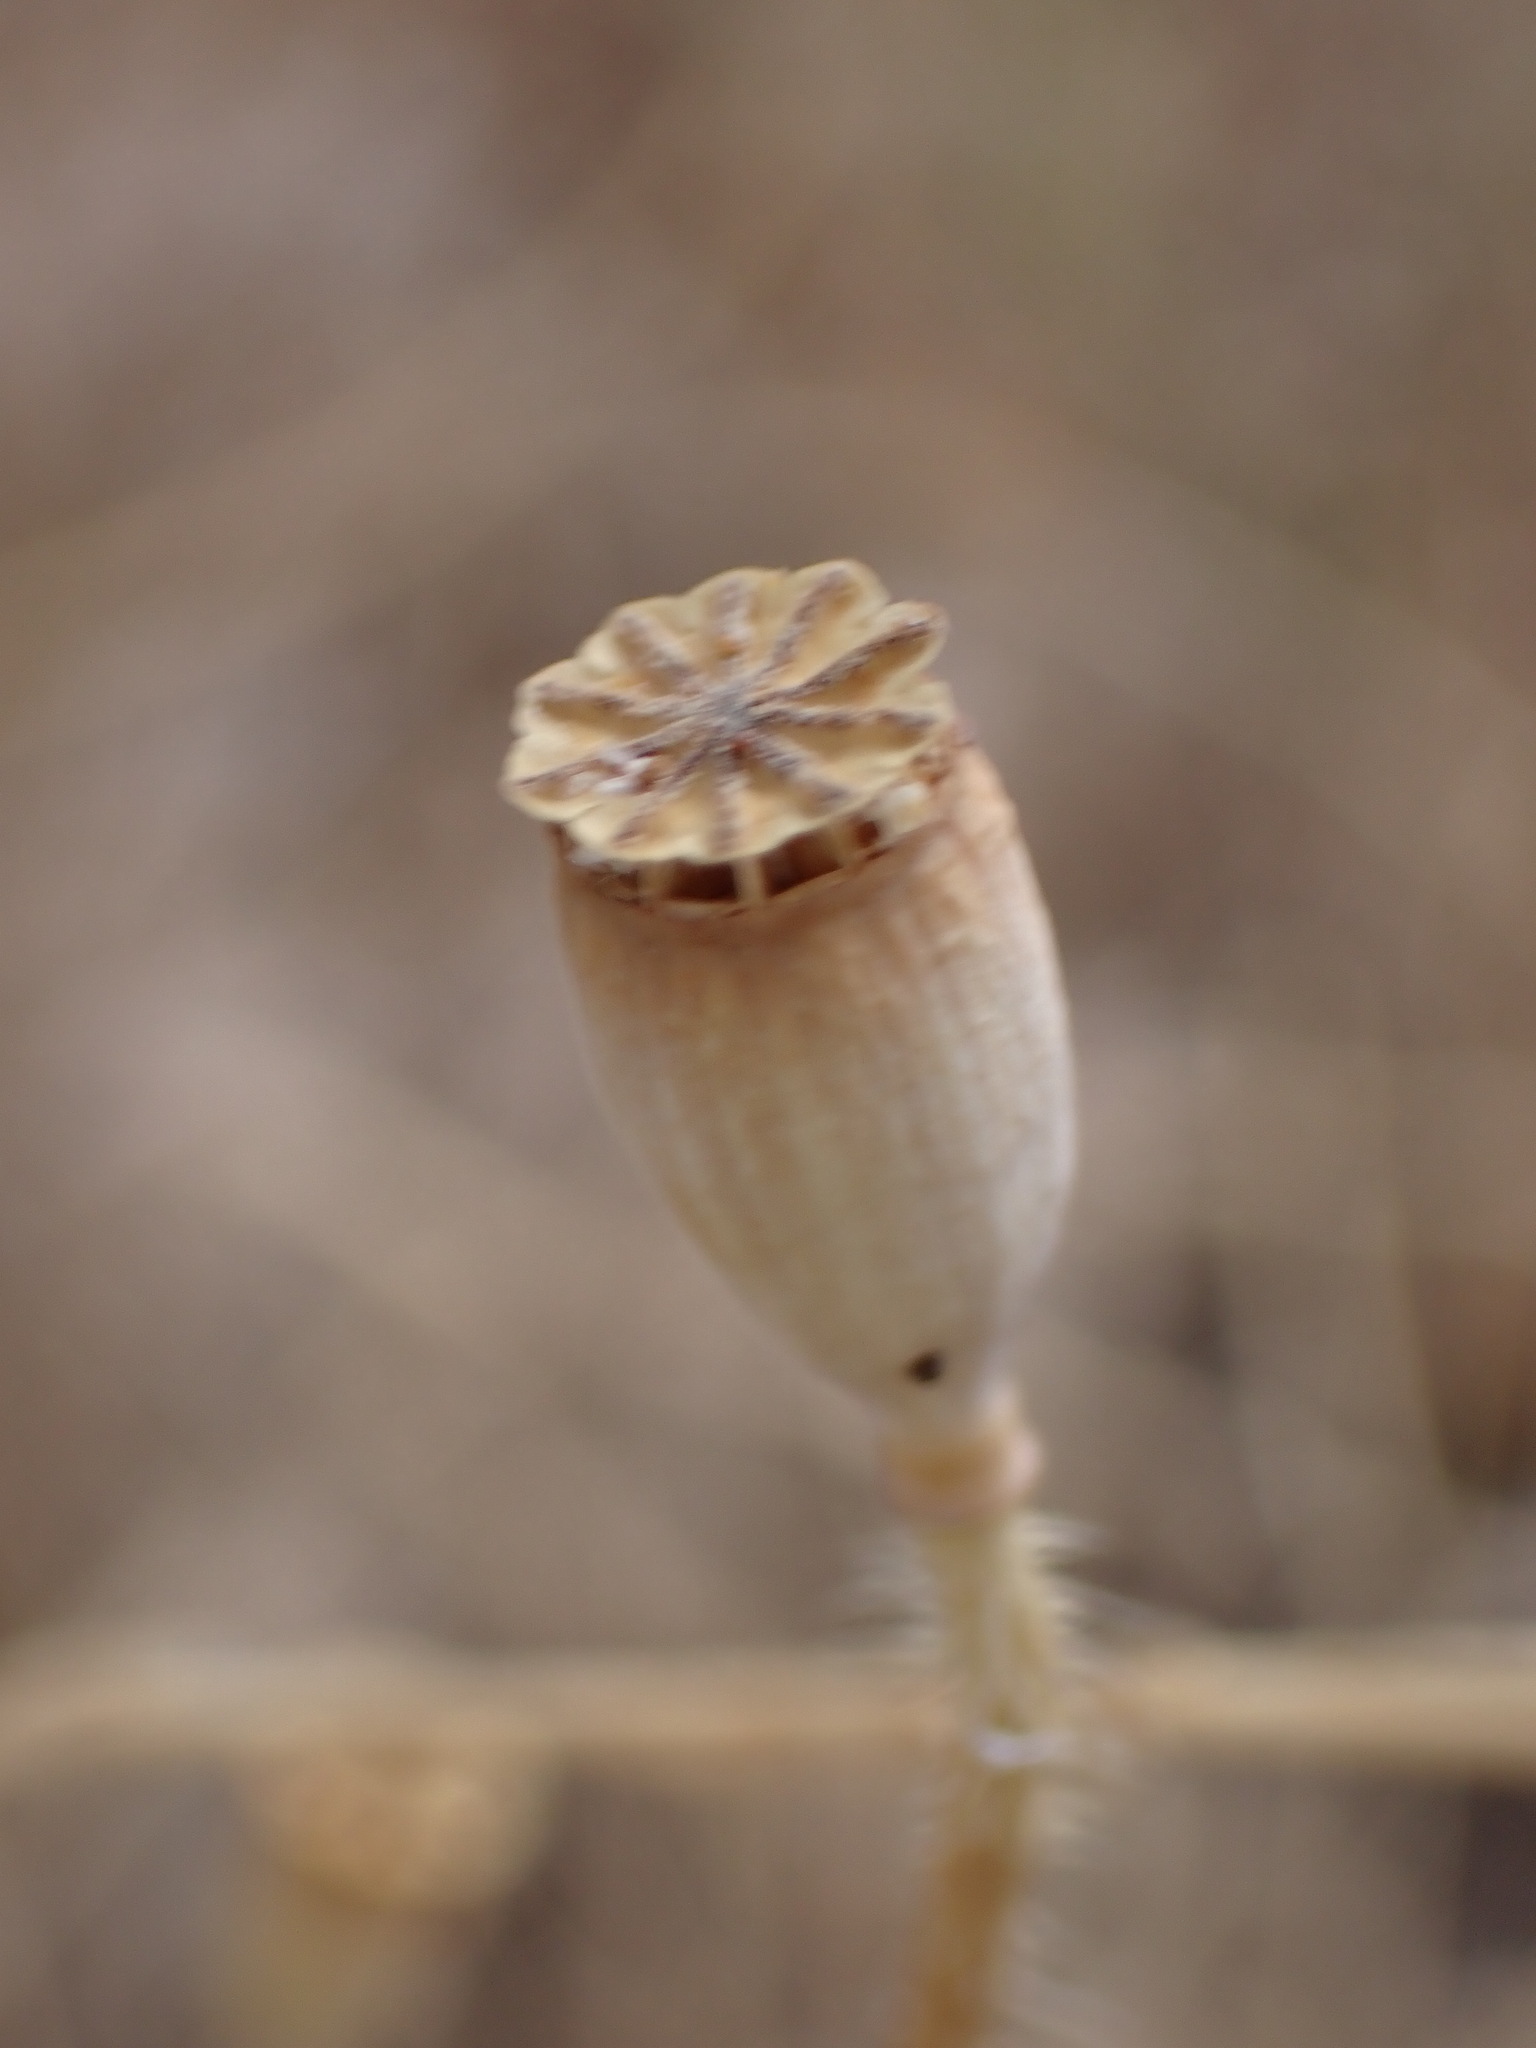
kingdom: Plantae
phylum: Tracheophyta
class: Magnoliopsida
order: Ranunculales
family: Papaveraceae
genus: Papaver
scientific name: Papaver rhoeas
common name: Corn poppy
